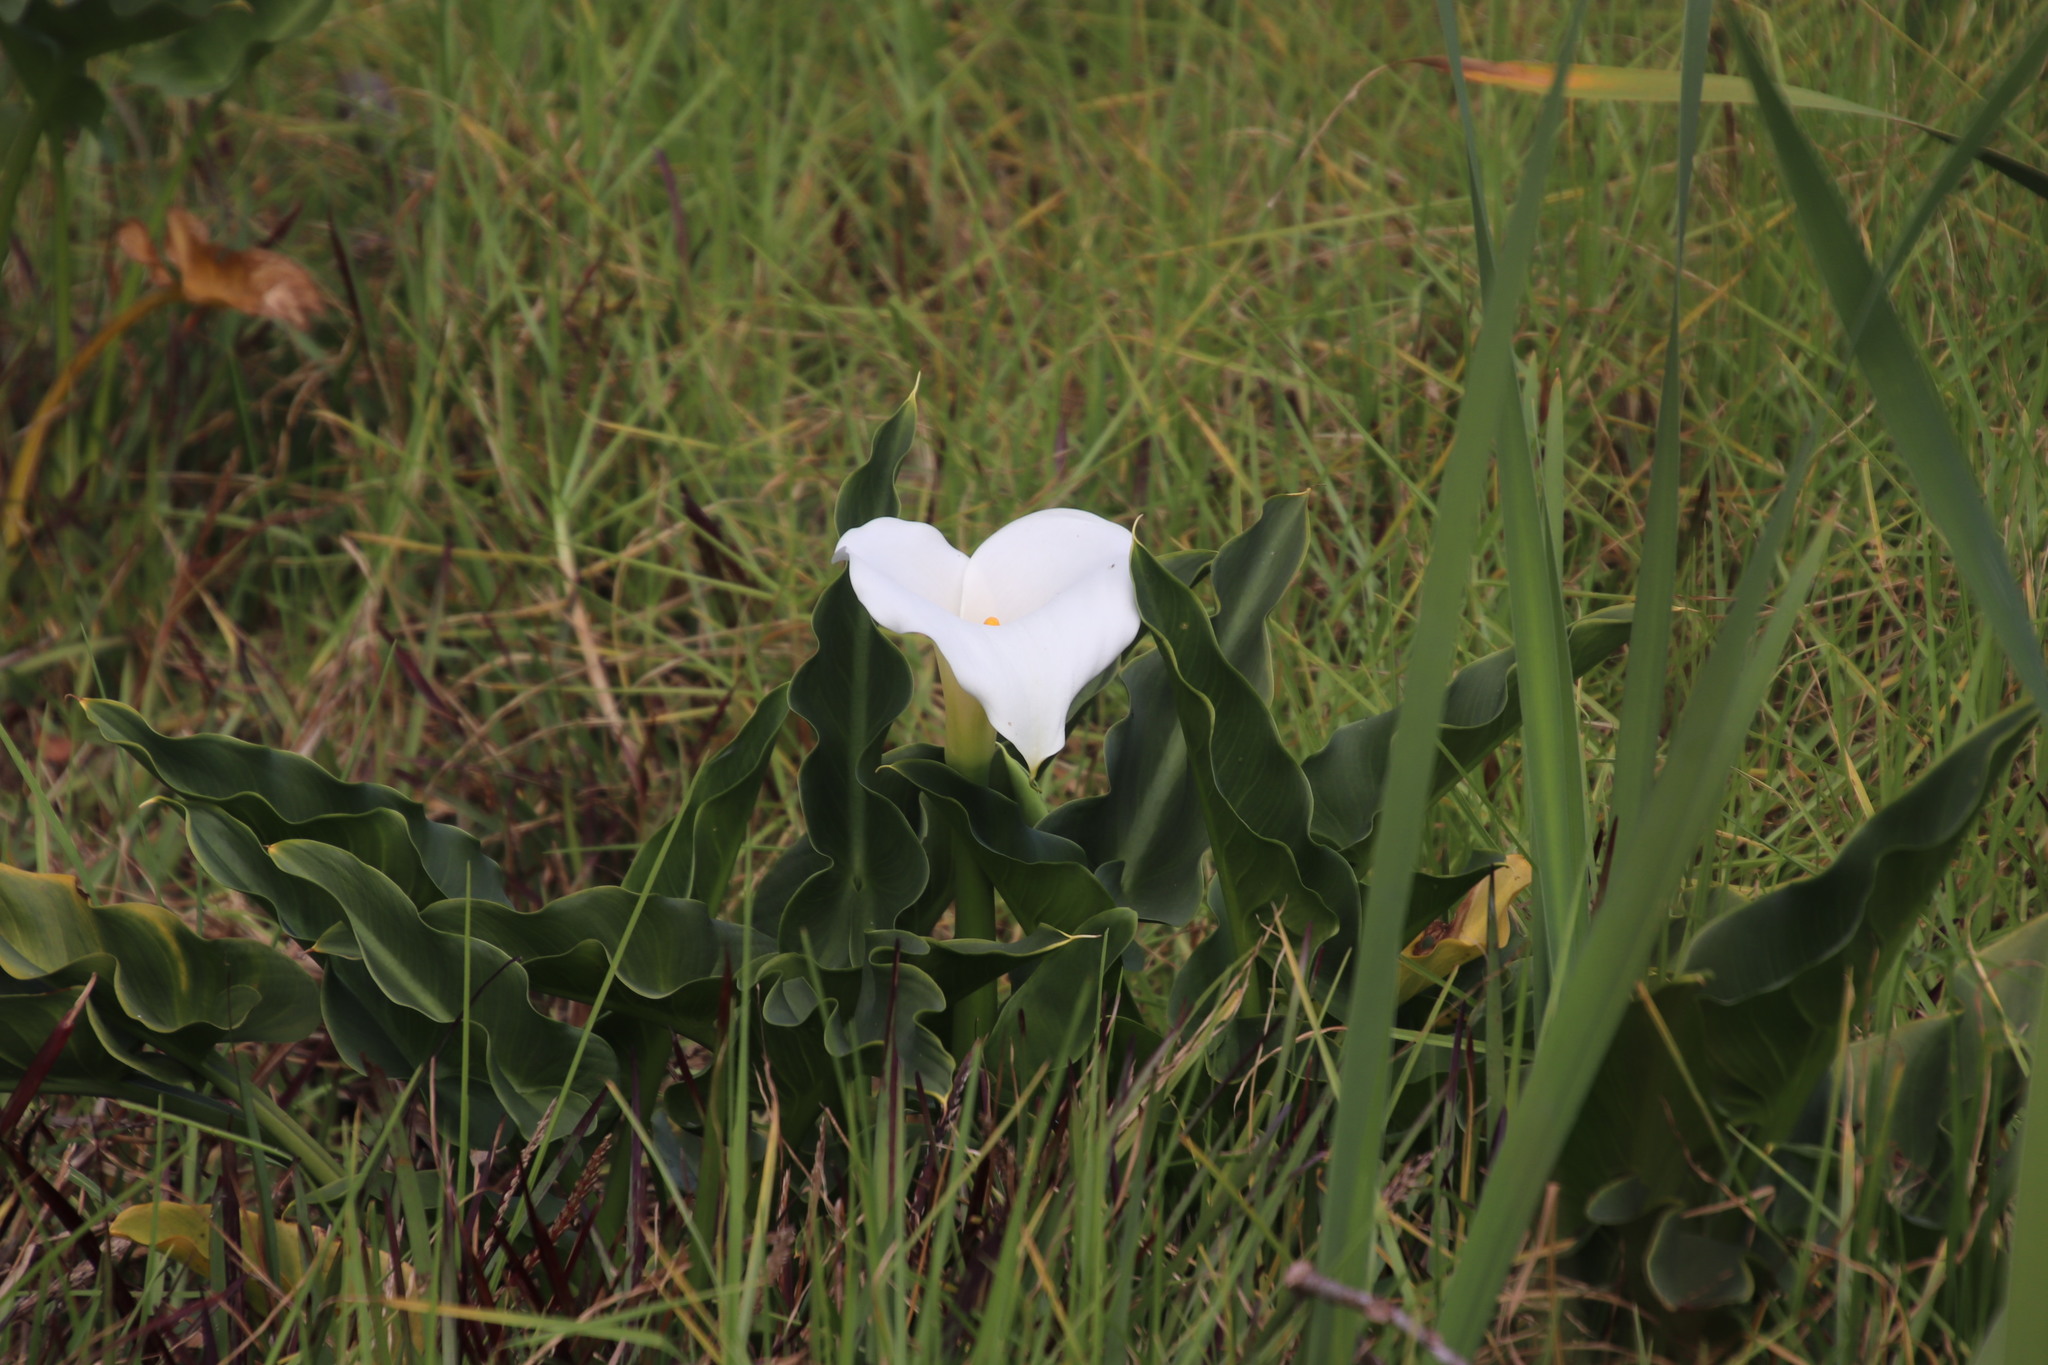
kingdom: Plantae
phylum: Tracheophyta
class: Liliopsida
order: Alismatales
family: Araceae
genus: Zantedeschia
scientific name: Zantedeschia aethiopica
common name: Altar-lily
